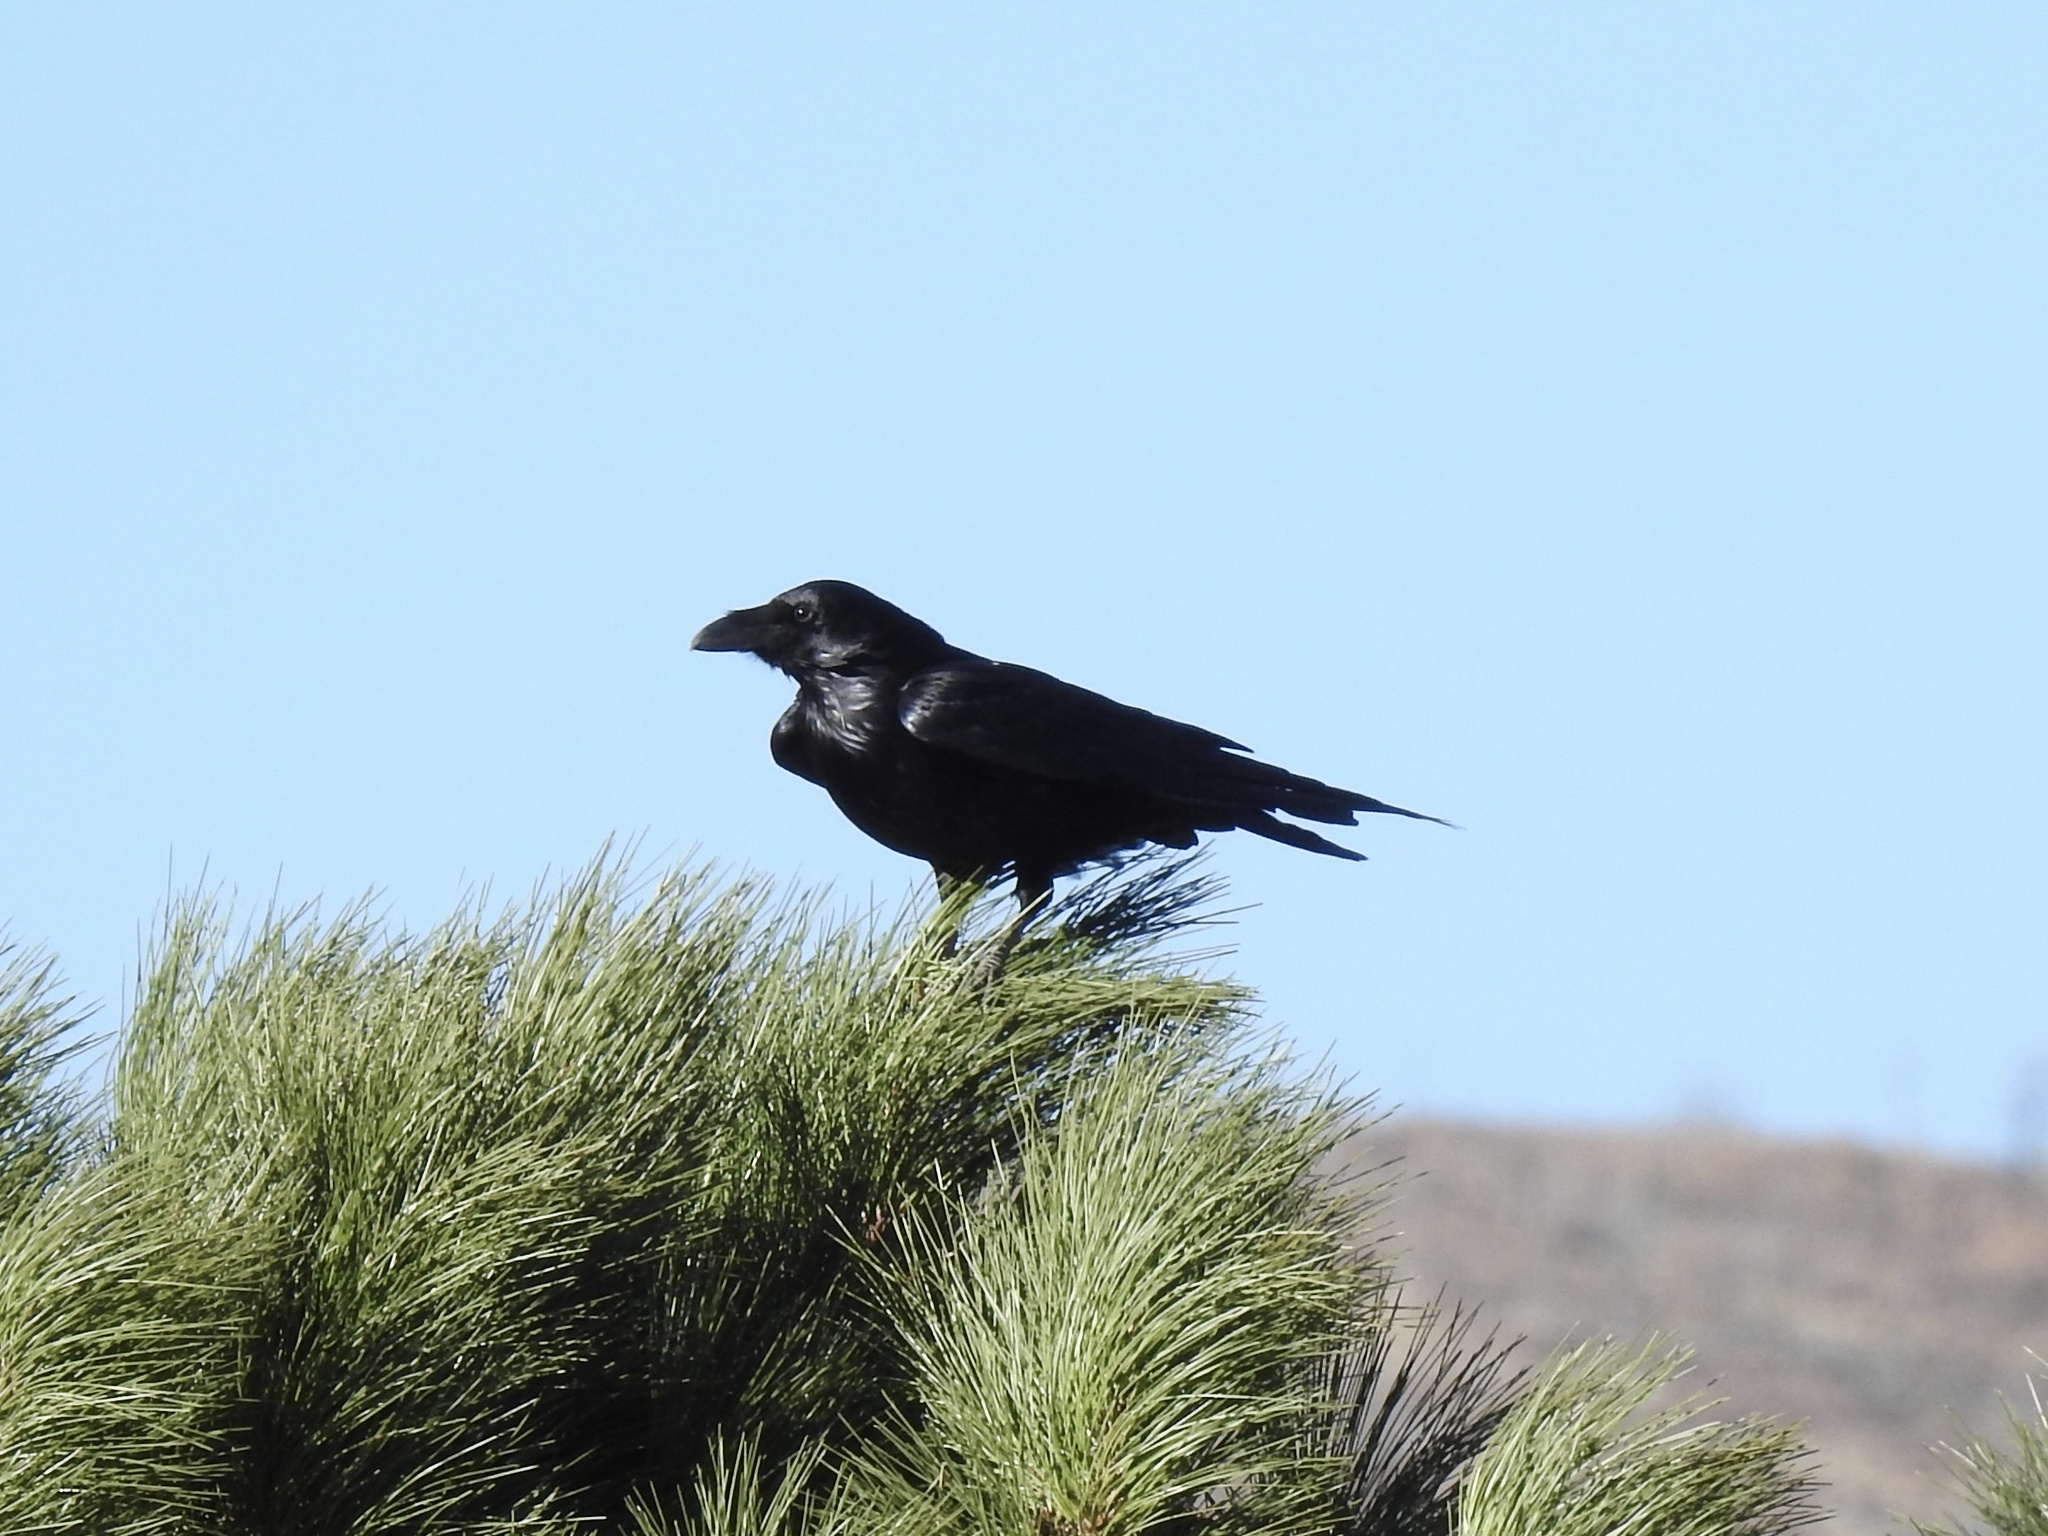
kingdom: Animalia
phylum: Chordata
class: Aves
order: Passeriformes
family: Corvidae
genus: Corvus
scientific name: Corvus corax
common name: Common raven
